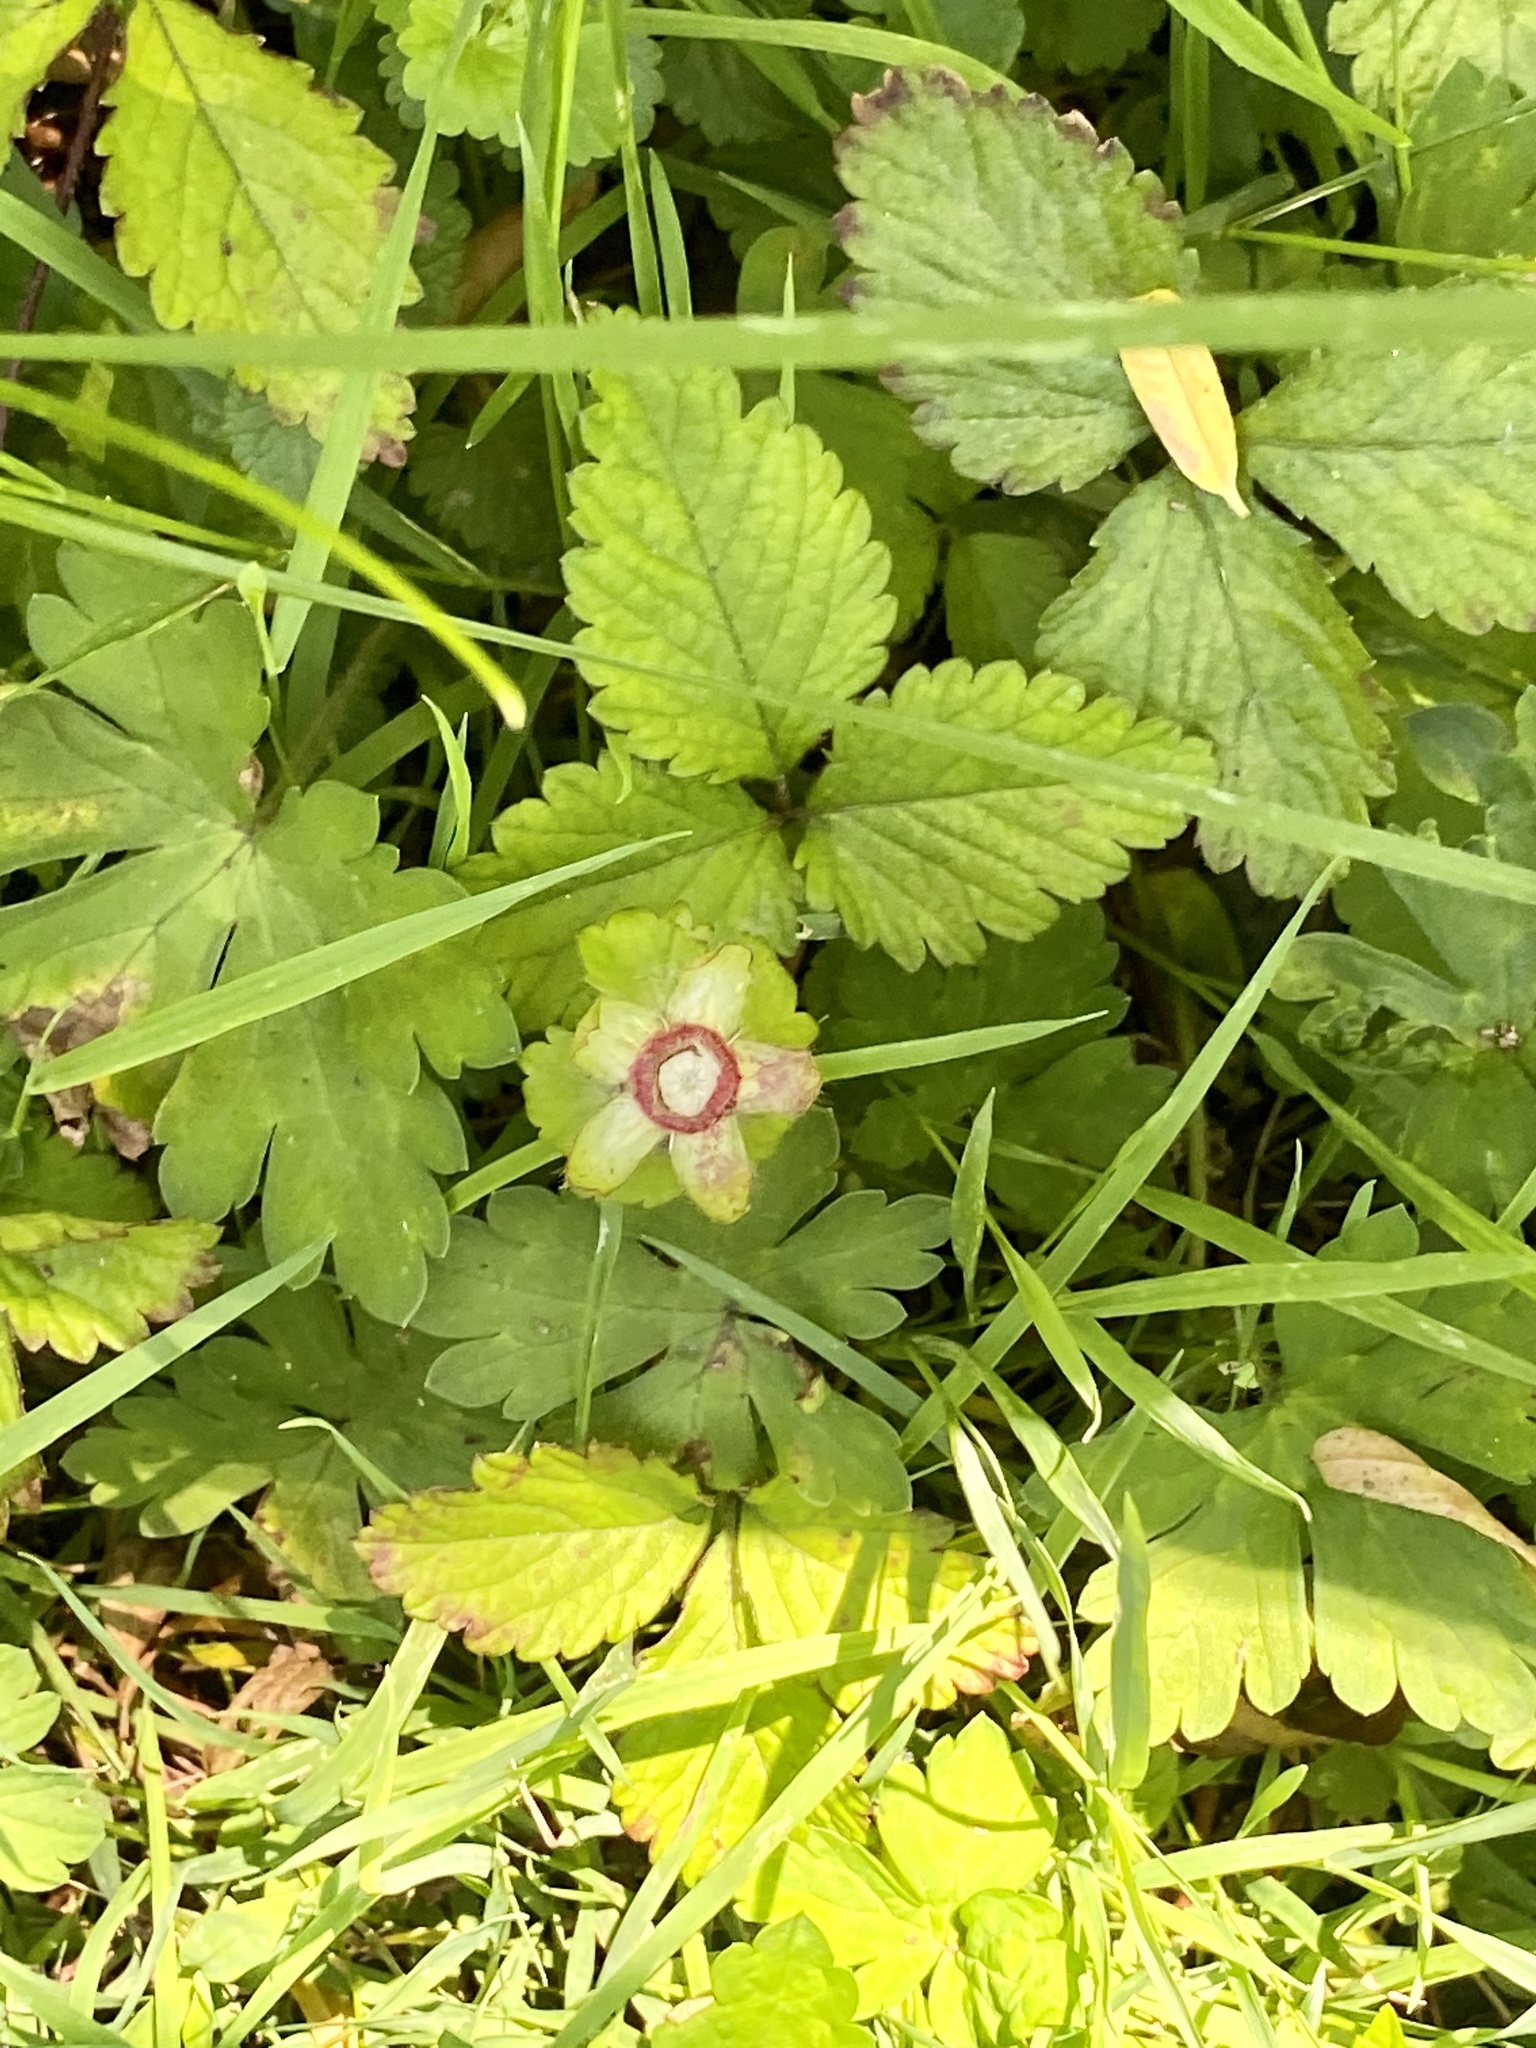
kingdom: Plantae
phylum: Tracheophyta
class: Magnoliopsida
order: Rosales
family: Rosaceae
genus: Potentilla
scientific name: Potentilla indica
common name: Yellow-flowered strawberry
